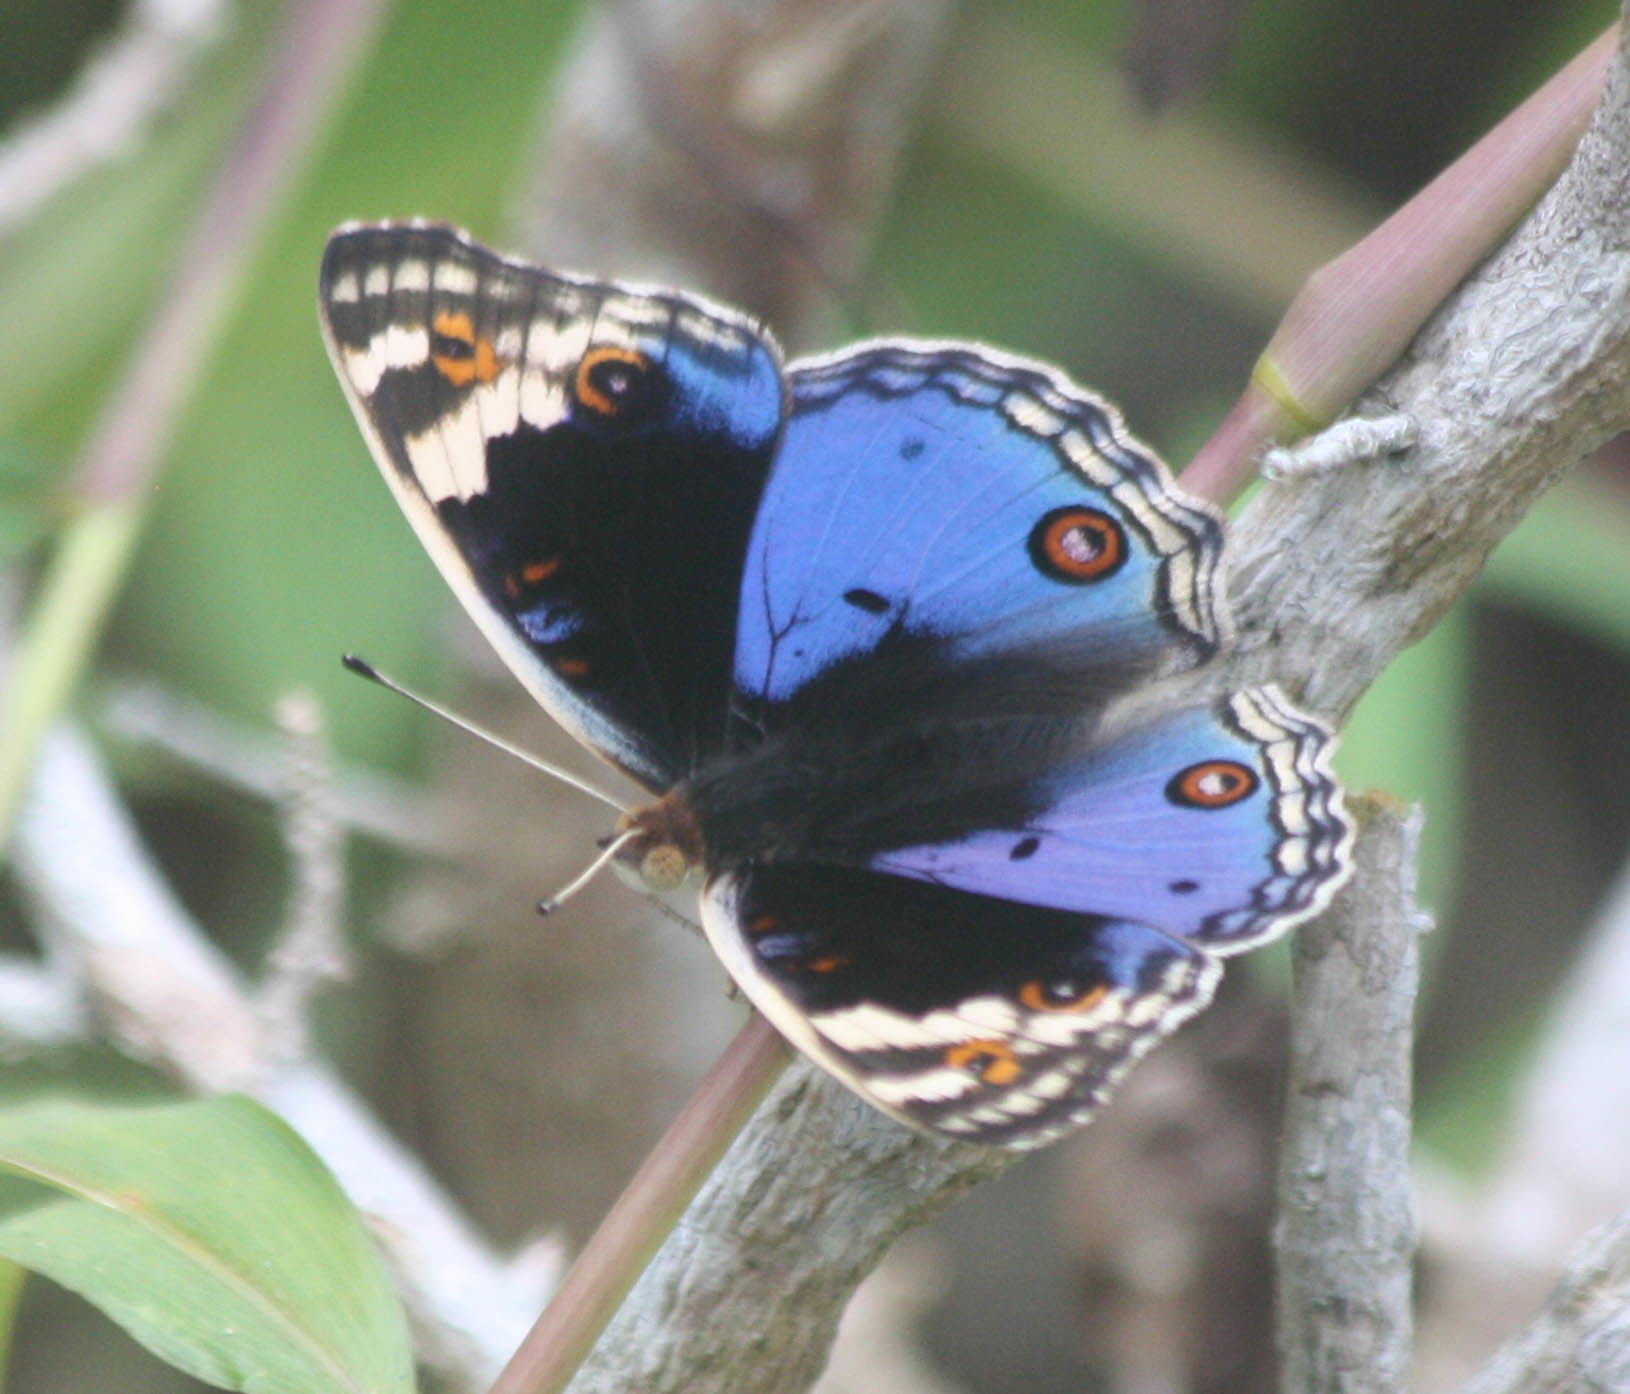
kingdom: Animalia
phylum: Arthropoda
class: Insecta
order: Lepidoptera
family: Nymphalidae
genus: Junonia
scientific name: Junonia orithya
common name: Blue pansy
